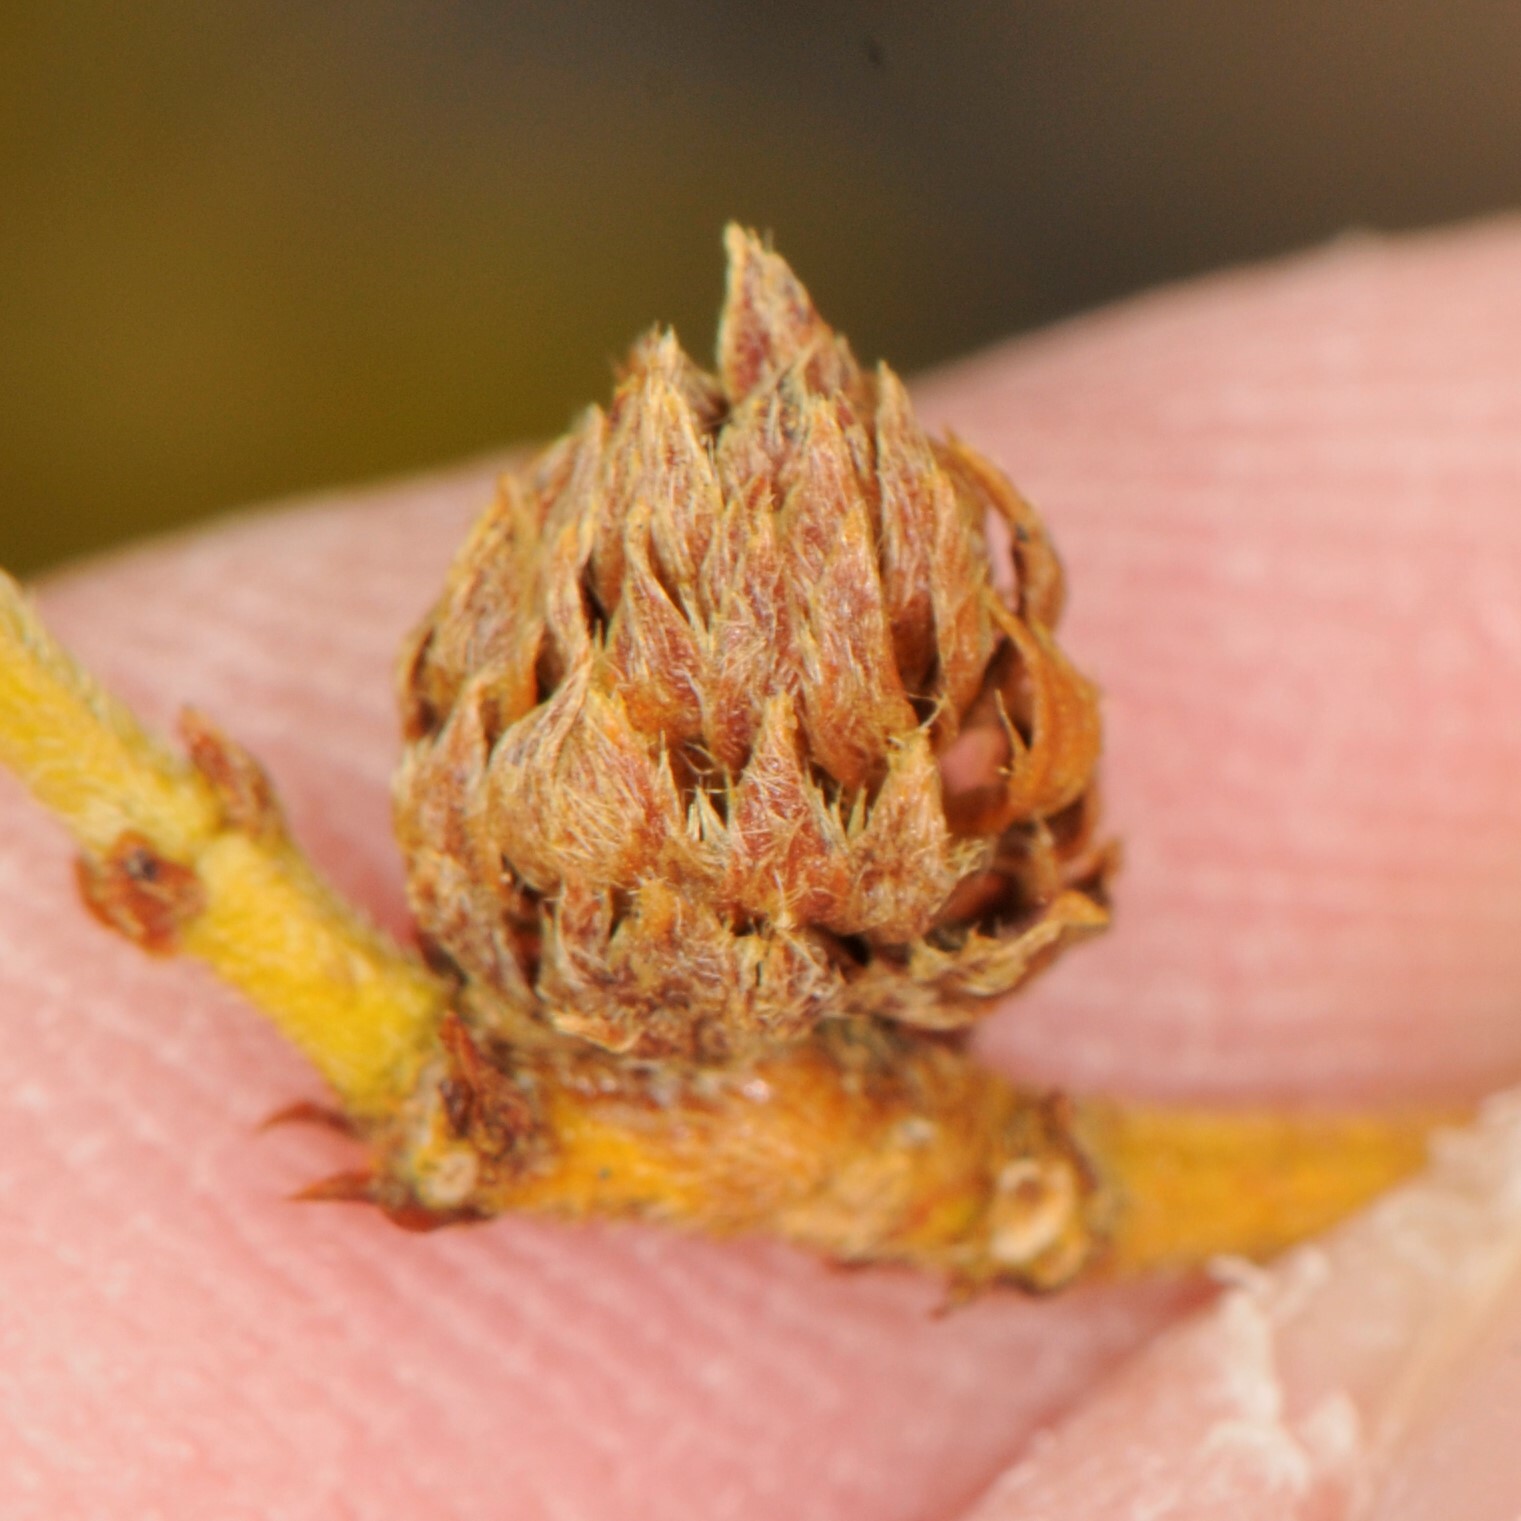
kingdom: Animalia
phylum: Arthropoda
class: Insecta
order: Diptera
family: Cecidomyiidae
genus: Asphondylia
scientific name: Asphondylia foliosa
